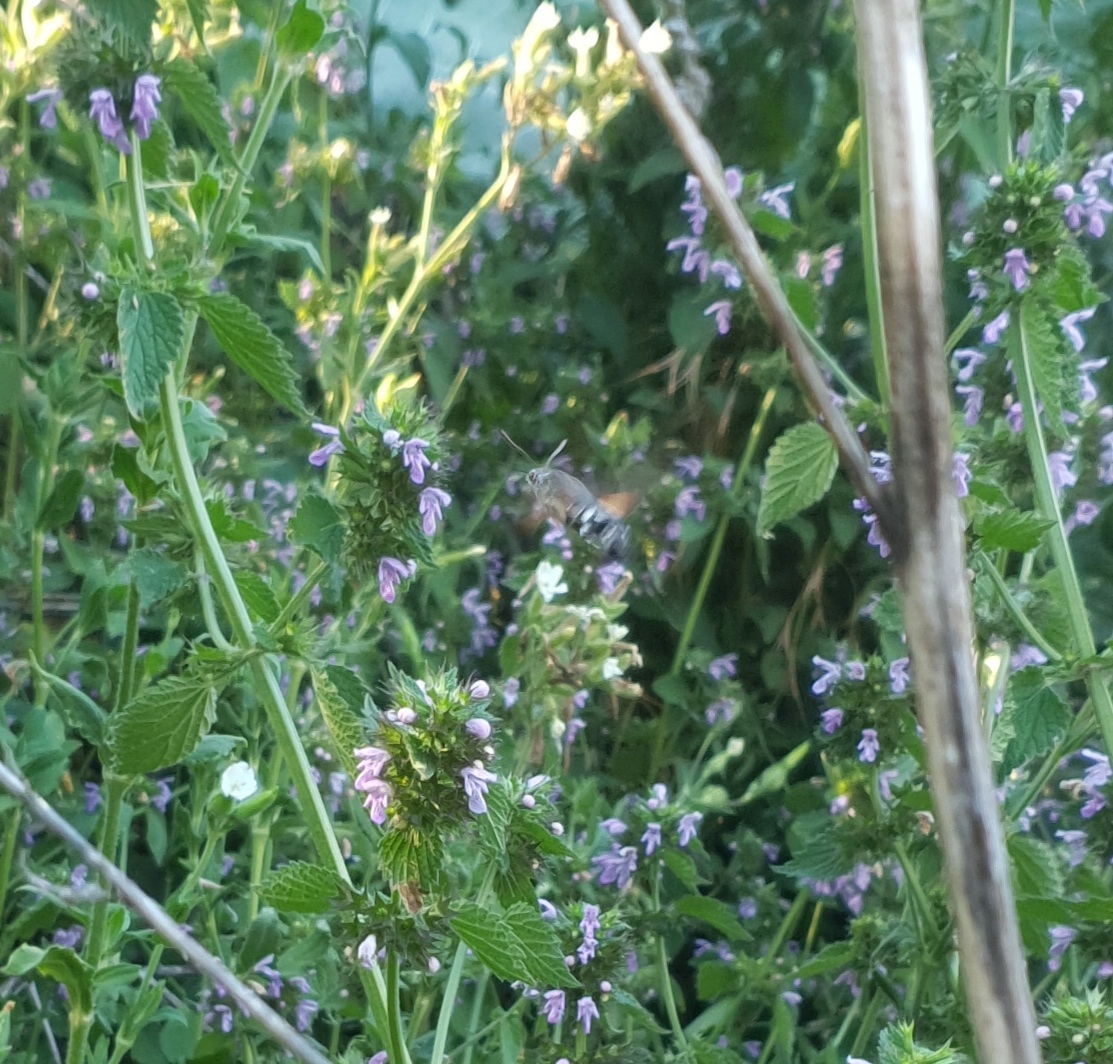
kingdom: Animalia
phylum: Arthropoda
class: Insecta
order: Lepidoptera
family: Sphingidae
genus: Macroglossum
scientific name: Macroglossum stellatarum
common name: Humming-bird hawk-moth
